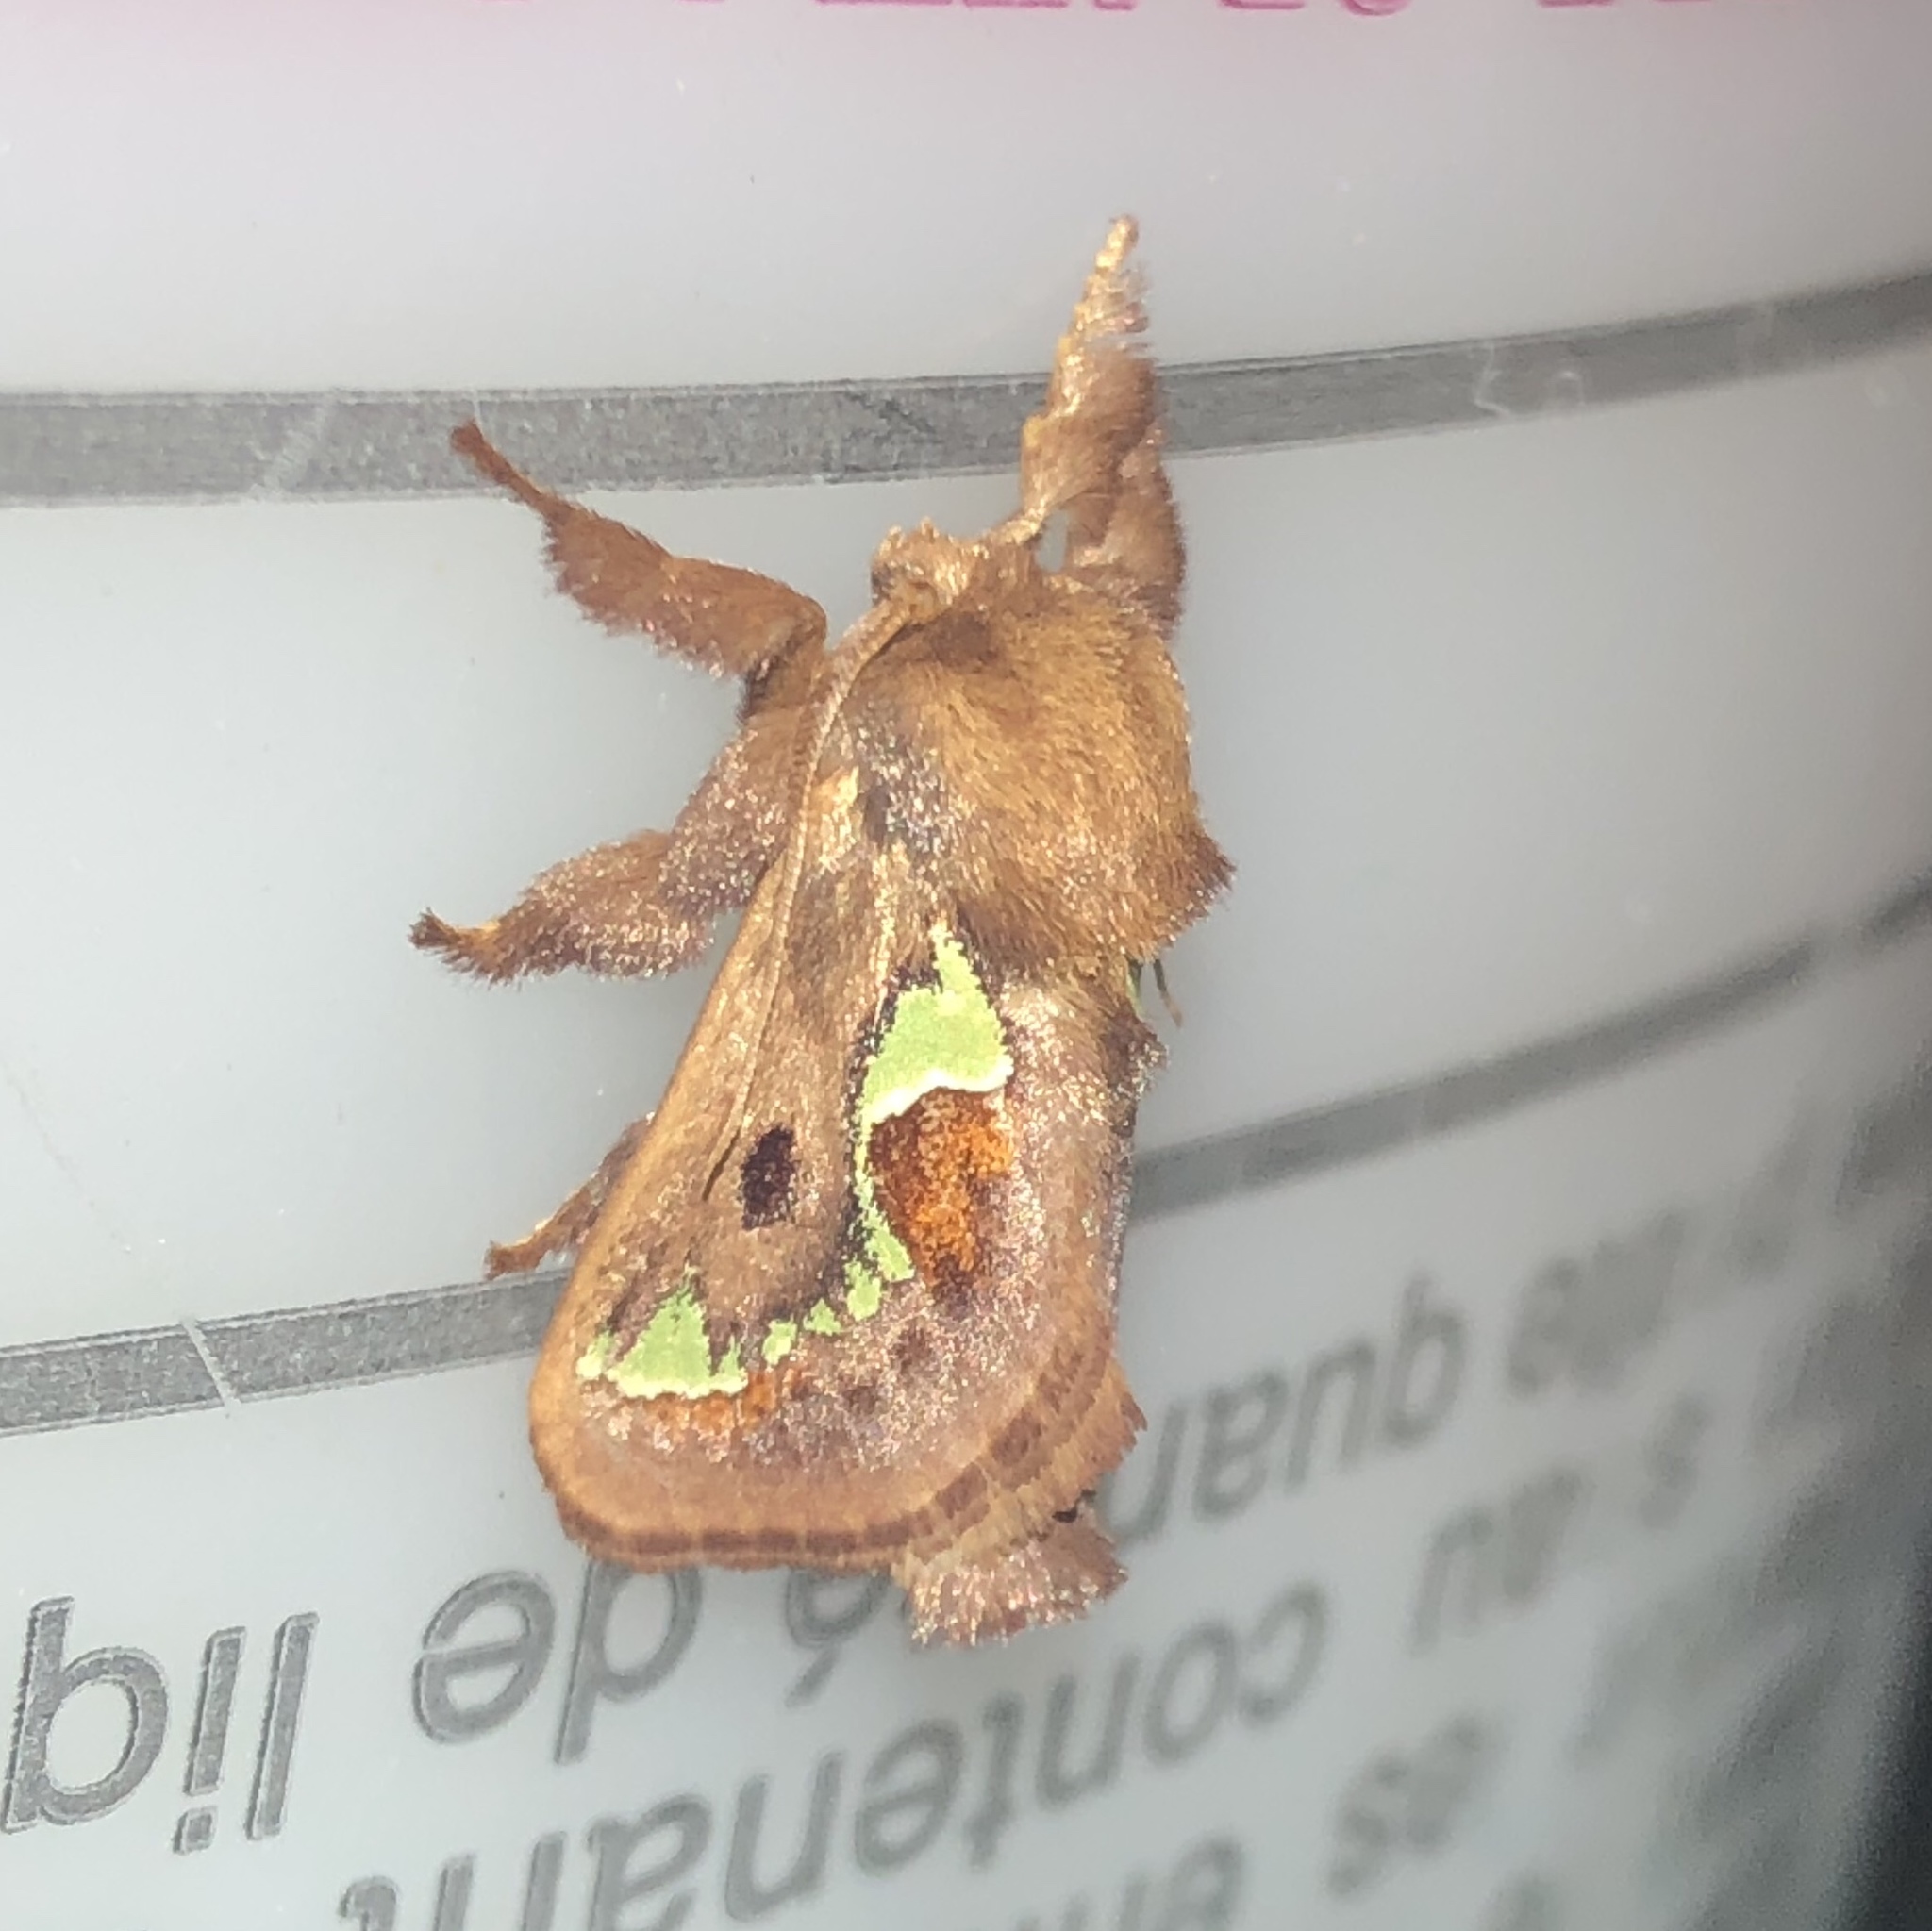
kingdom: Animalia
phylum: Arthropoda
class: Insecta
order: Lepidoptera
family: Limacodidae
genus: Euclea
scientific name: Euclea delphinii
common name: Spiny oak-slug moth
